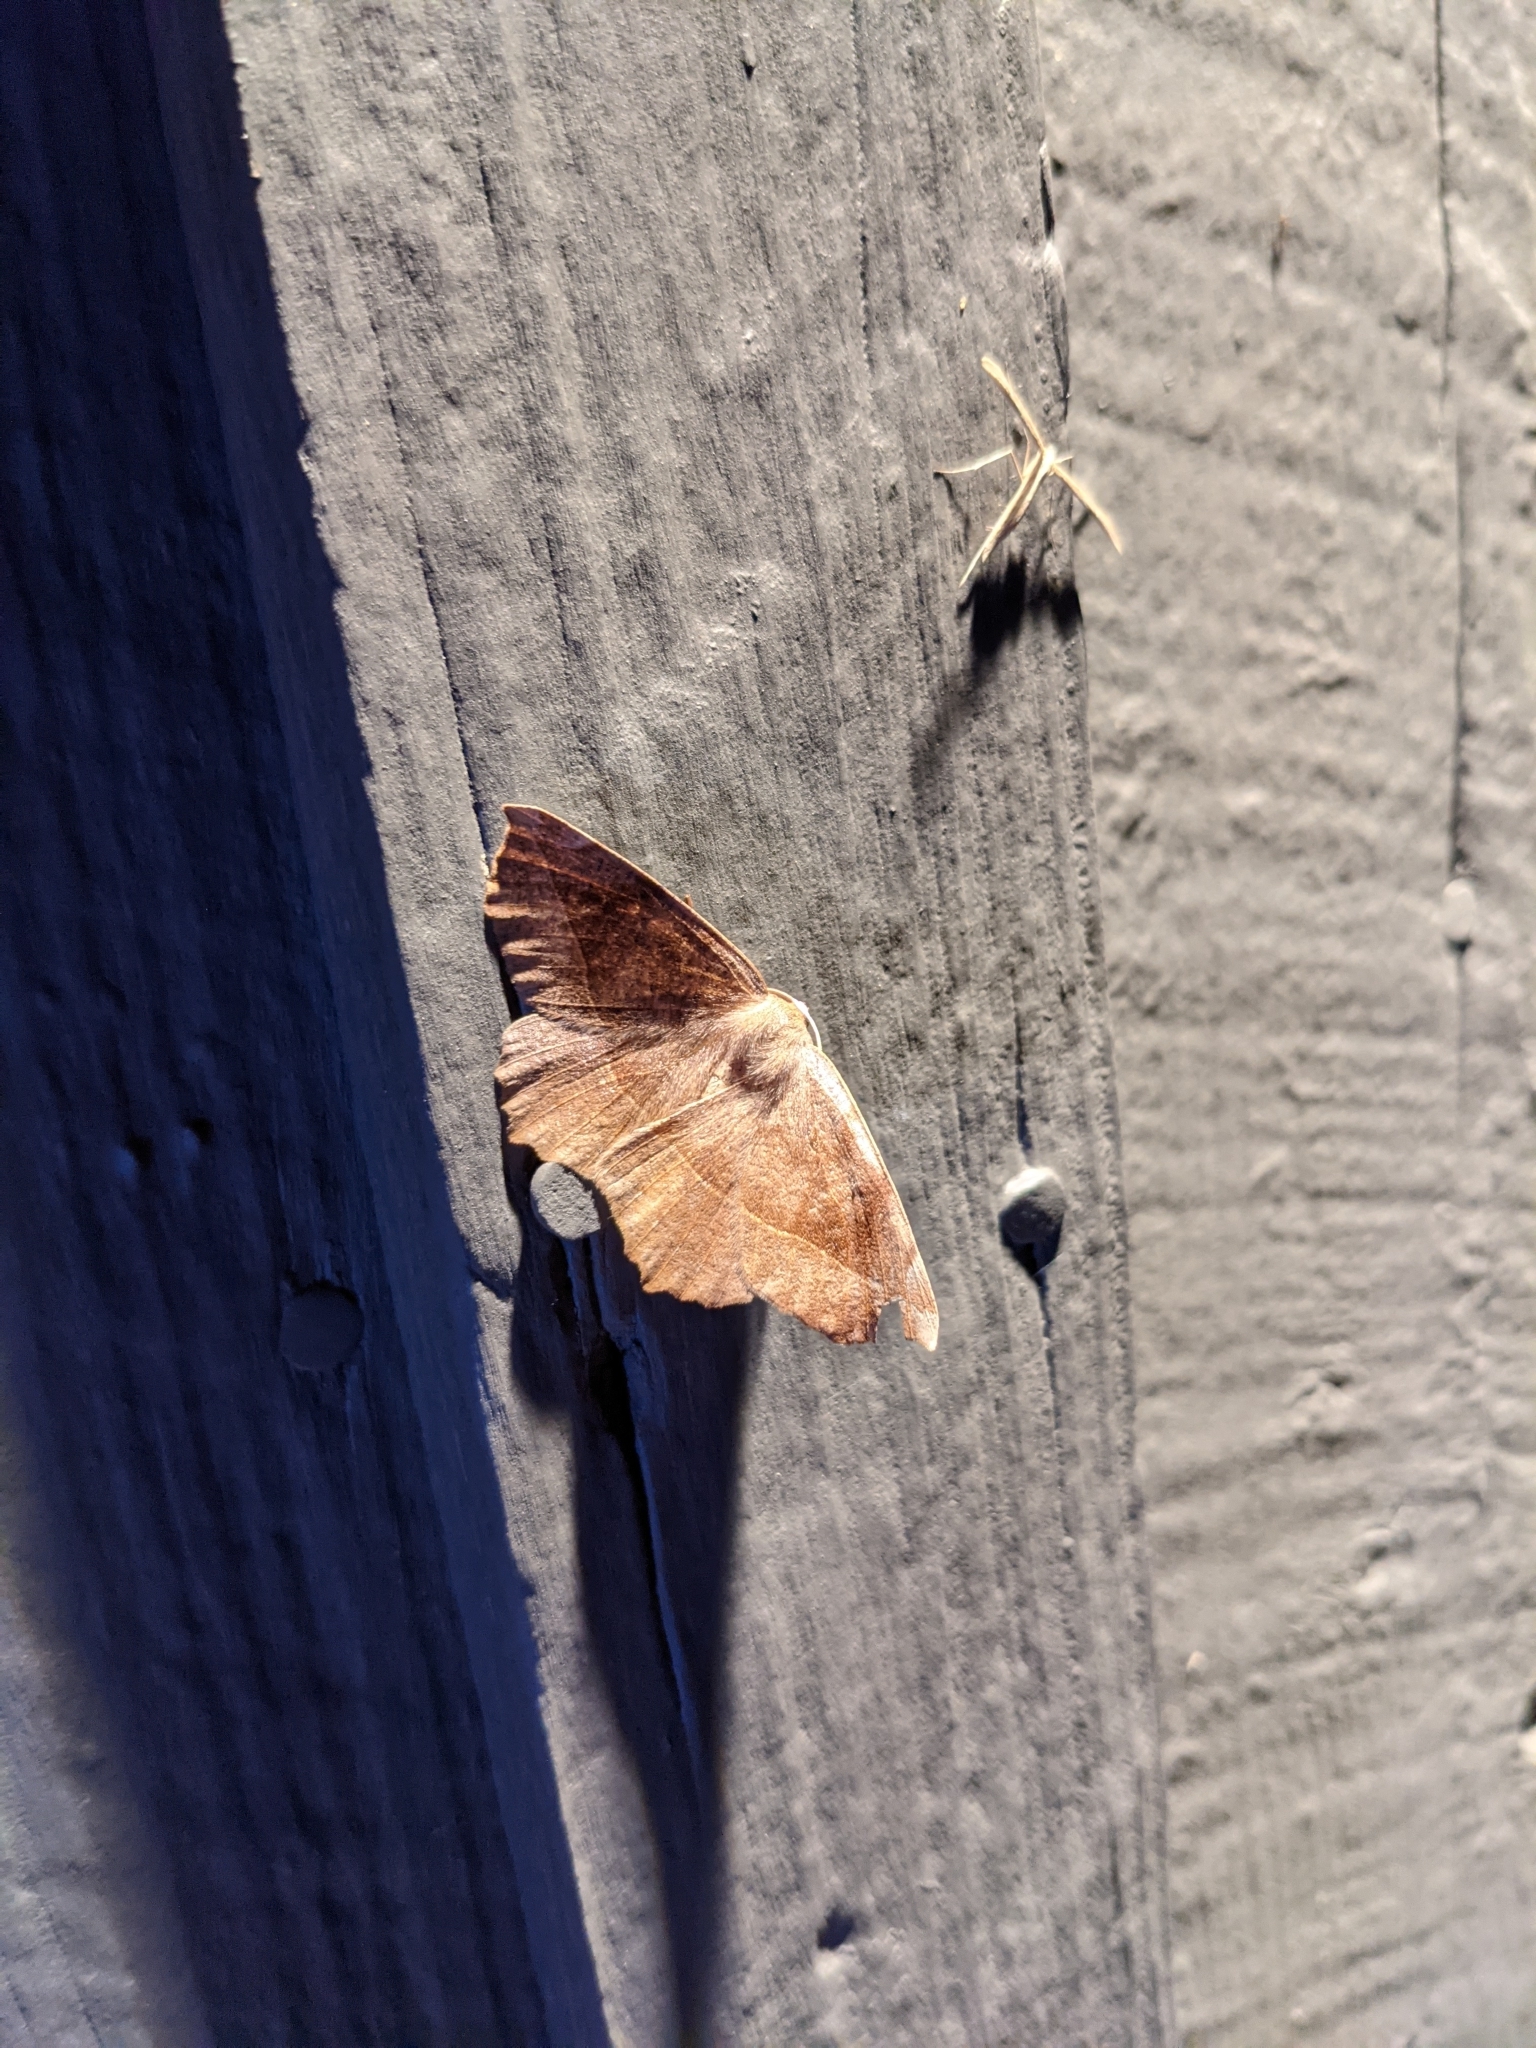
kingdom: Animalia
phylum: Arthropoda
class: Insecta
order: Lepidoptera
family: Geometridae
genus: Eutrapela
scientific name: Eutrapela clemataria
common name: Curved-toothed geometer
